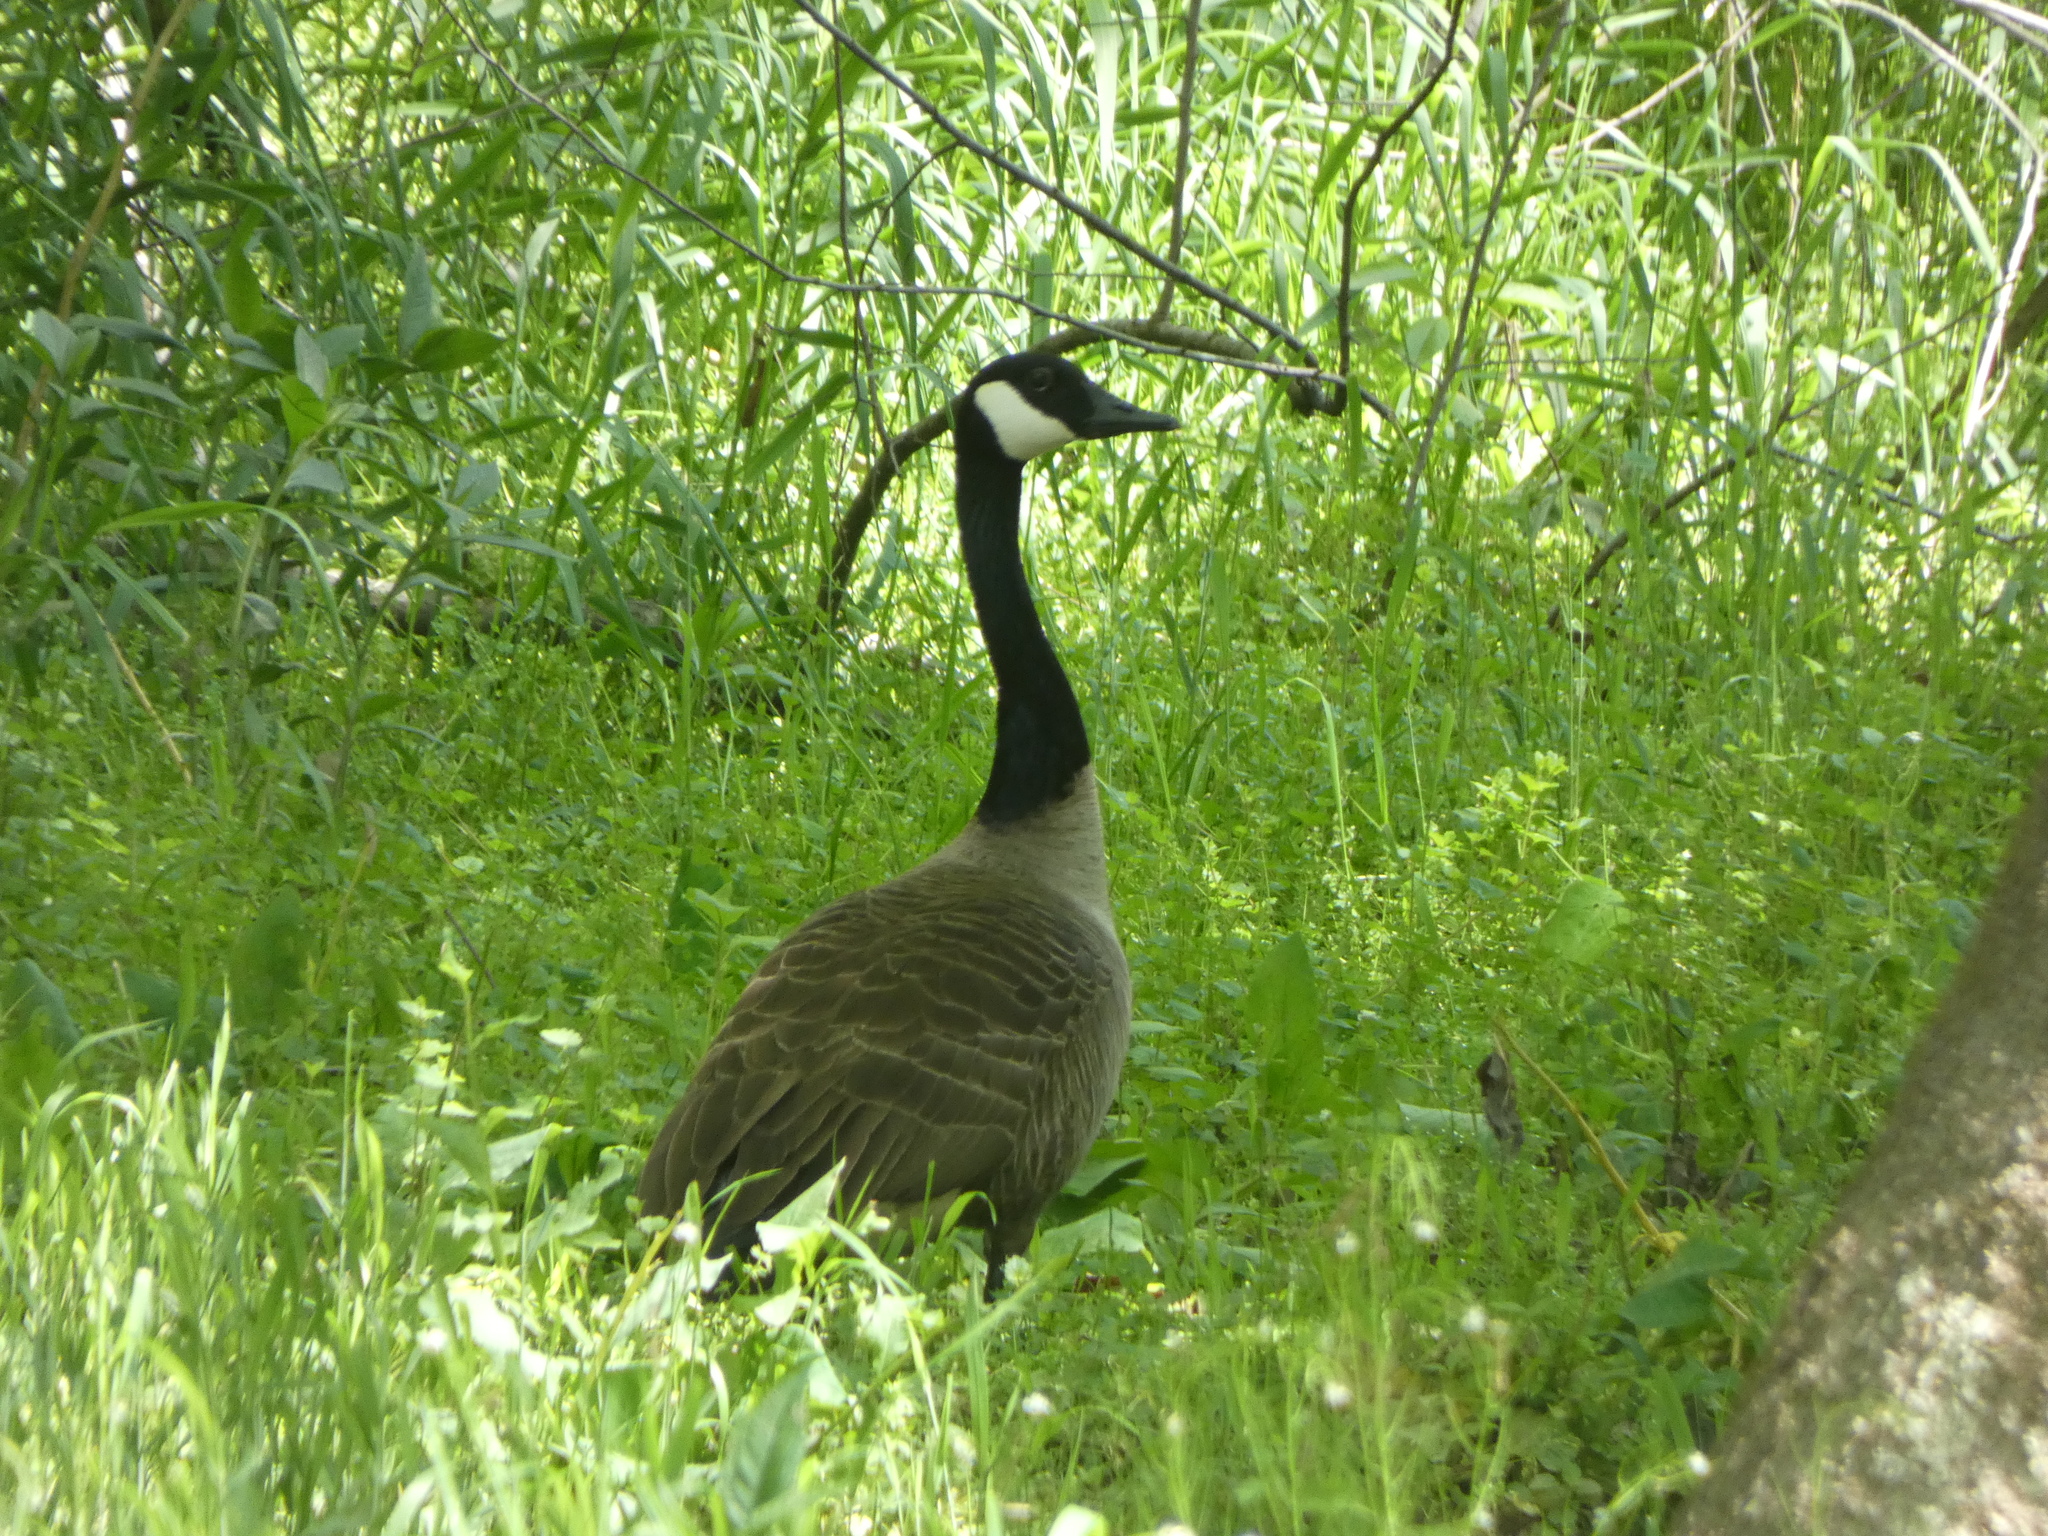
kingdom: Animalia
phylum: Chordata
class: Aves
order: Anseriformes
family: Anatidae
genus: Branta
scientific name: Branta canadensis
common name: Canada goose
